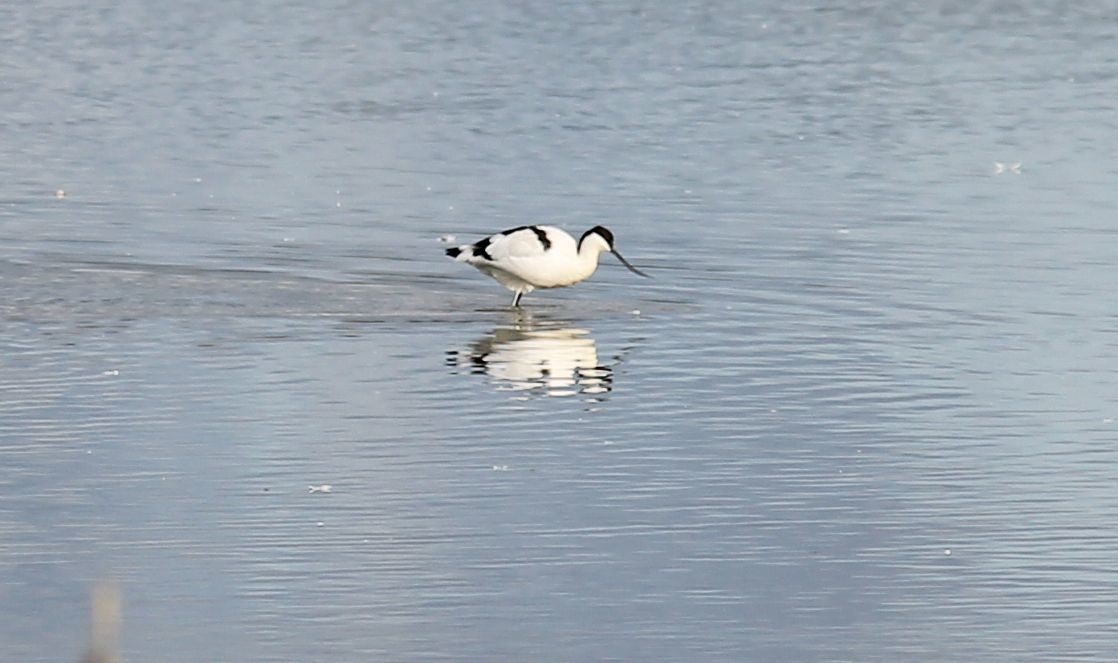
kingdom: Animalia
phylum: Chordata
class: Aves
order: Charadriiformes
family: Recurvirostridae
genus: Recurvirostra
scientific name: Recurvirostra avosetta
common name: Pied avocet
